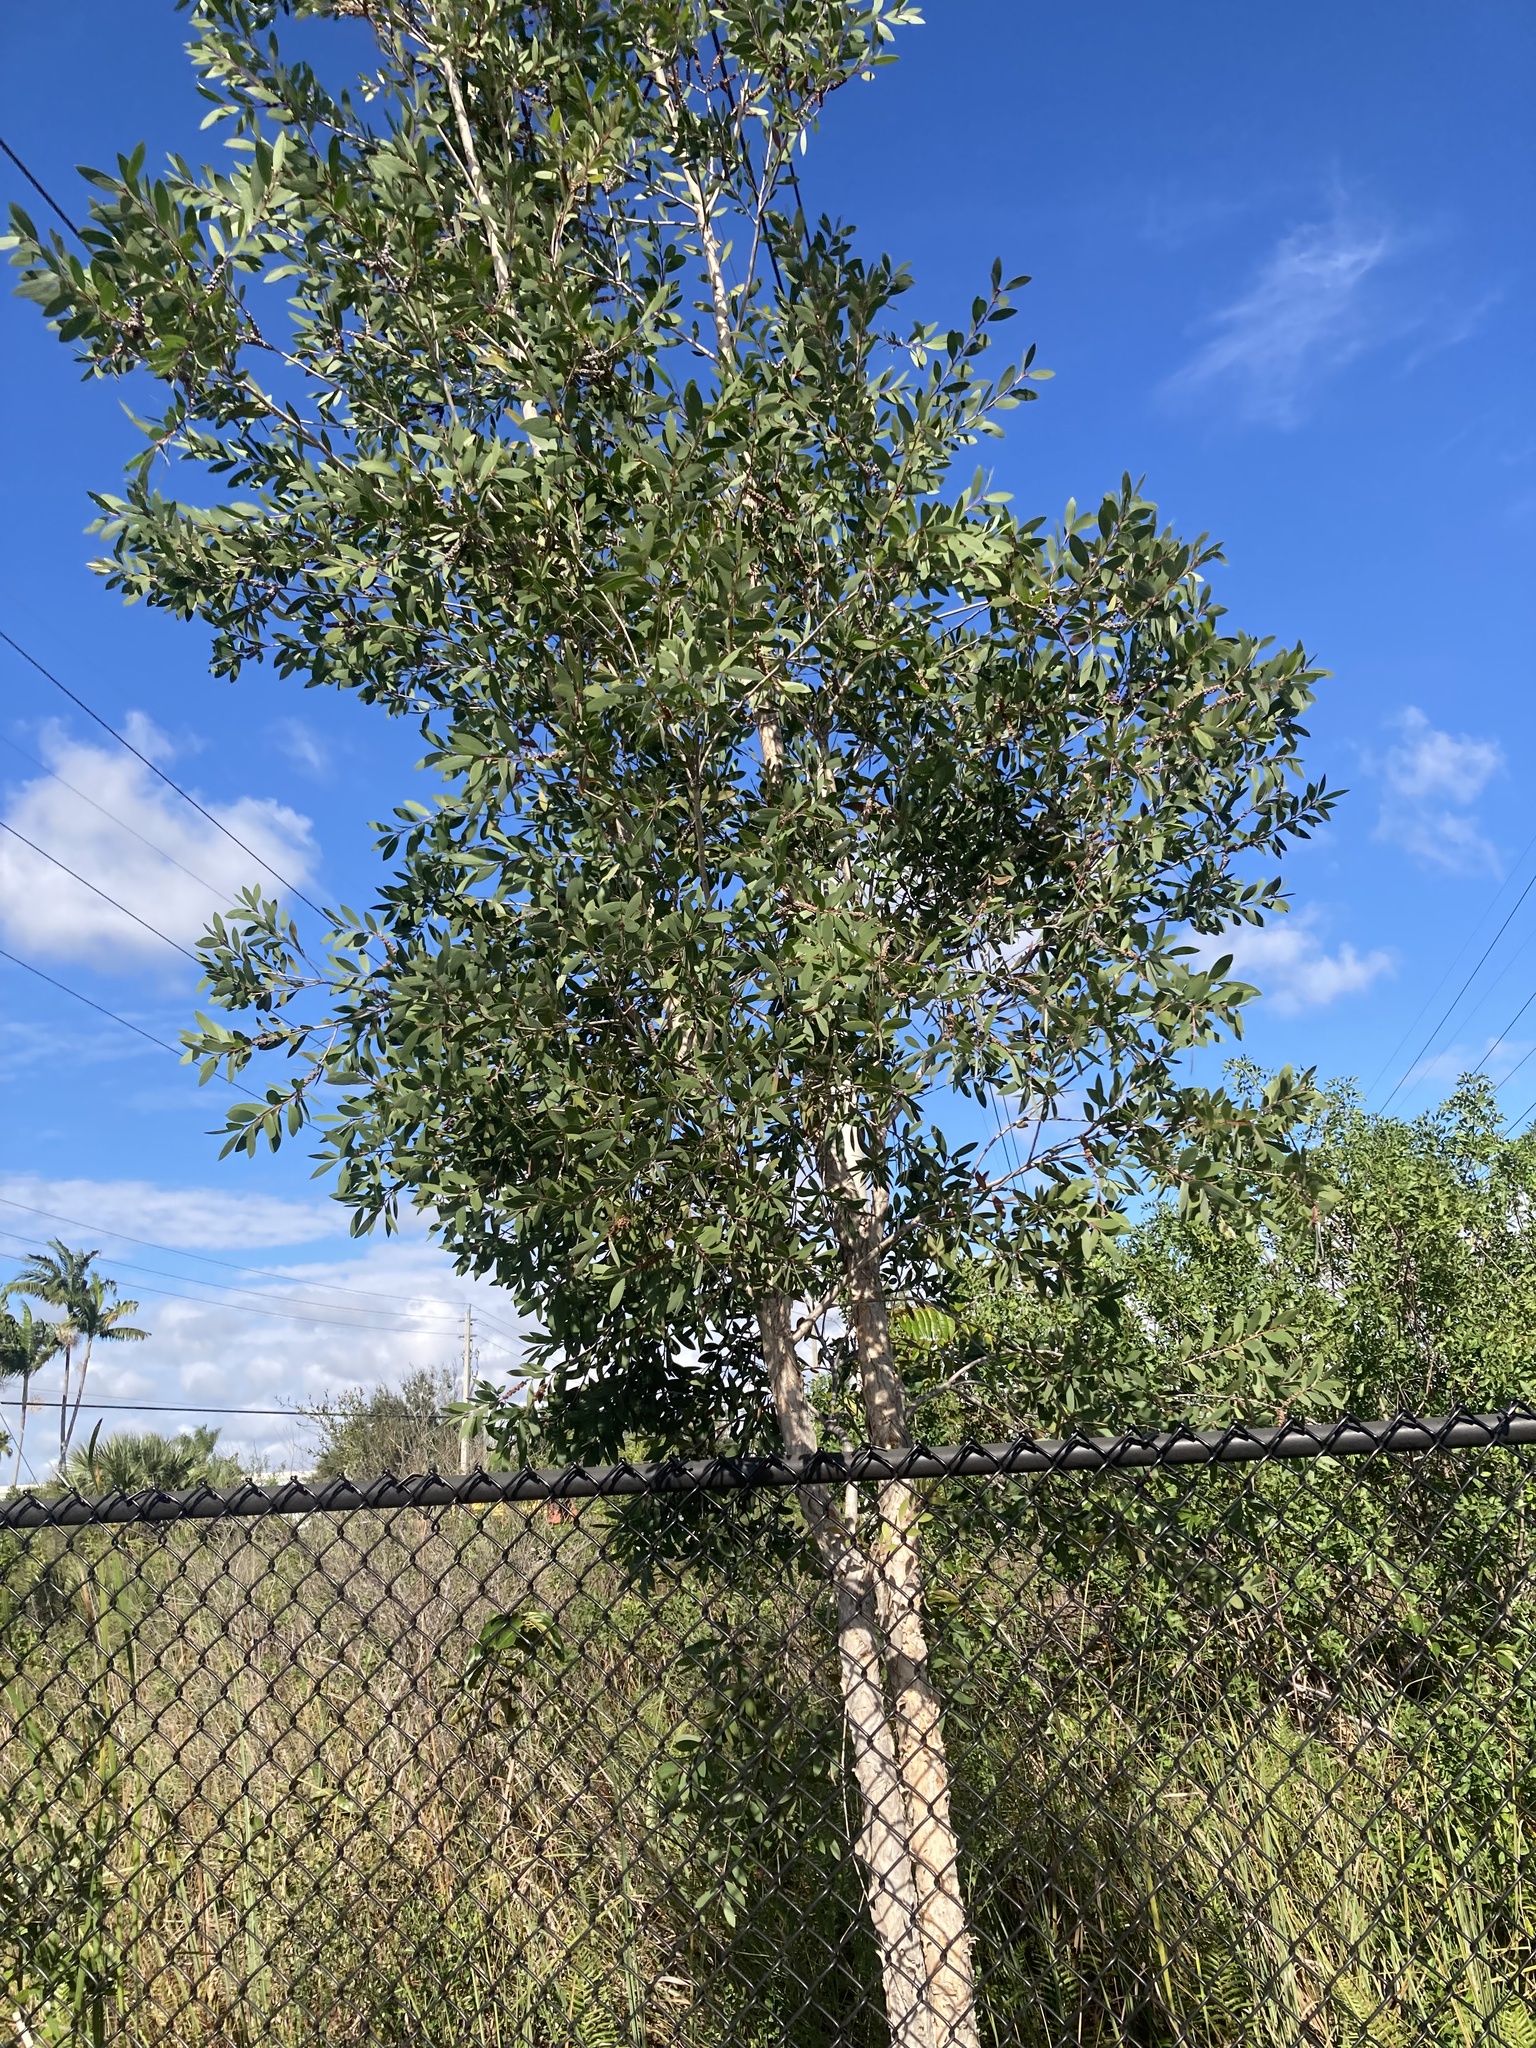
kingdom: Plantae
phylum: Tracheophyta
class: Magnoliopsida
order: Myrtales
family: Myrtaceae
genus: Melaleuca
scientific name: Melaleuca quinquenervia
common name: Punktree
